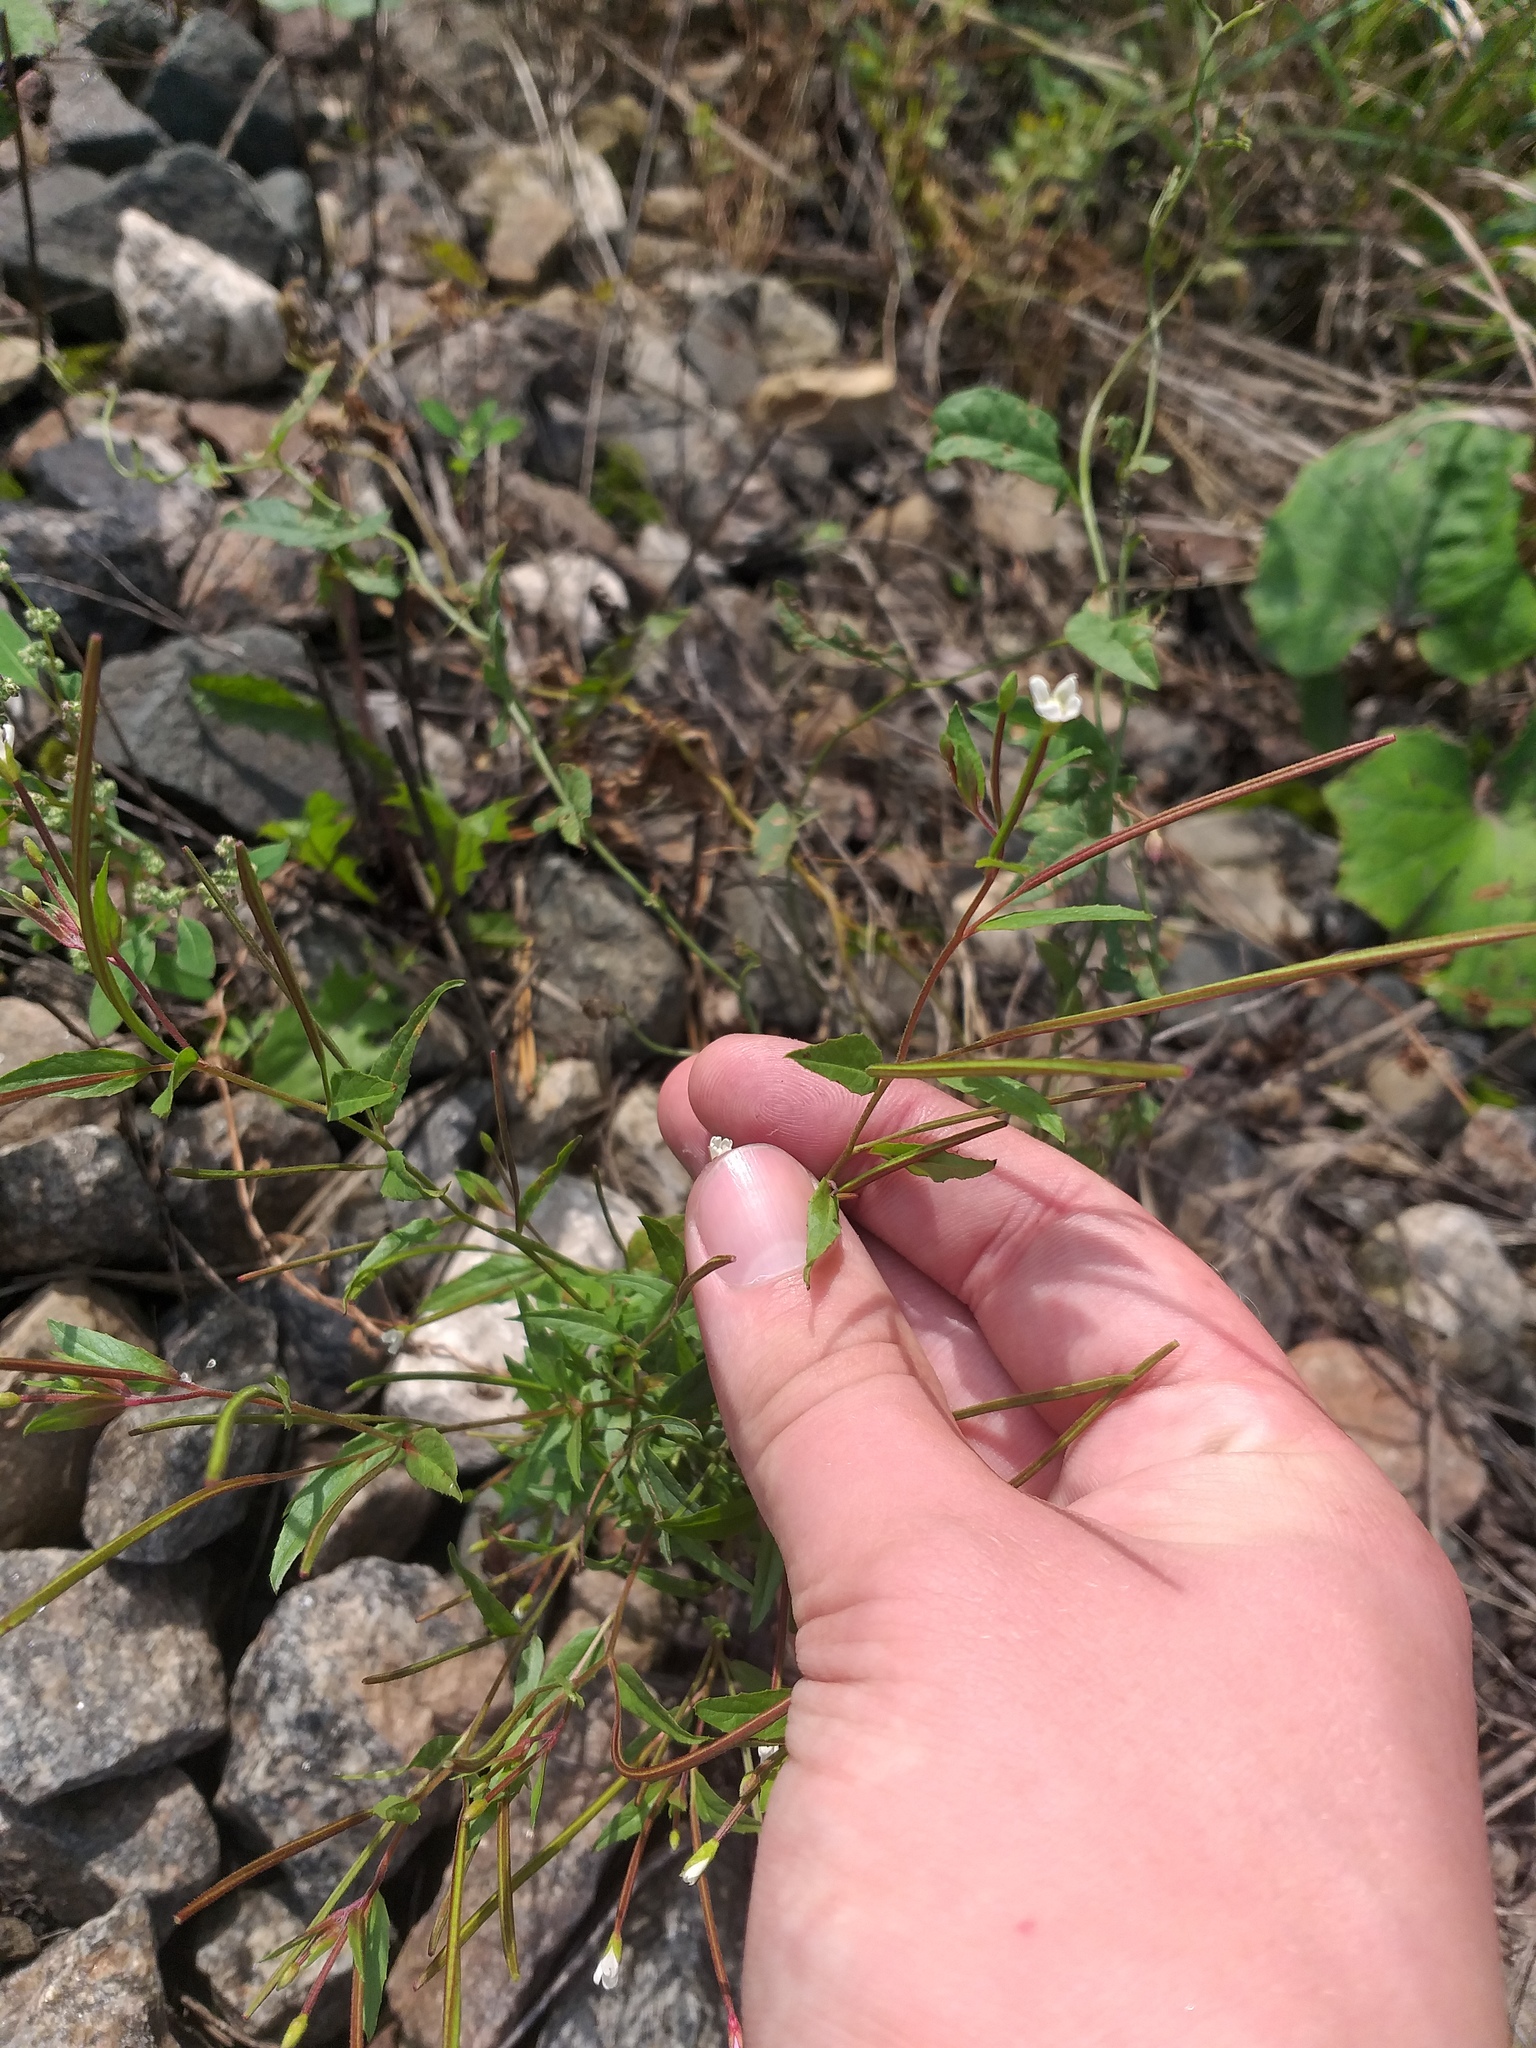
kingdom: Plantae
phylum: Tracheophyta
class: Magnoliopsida
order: Myrtales
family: Onagraceae
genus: Epilobium
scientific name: Epilobium pseudorubescens
